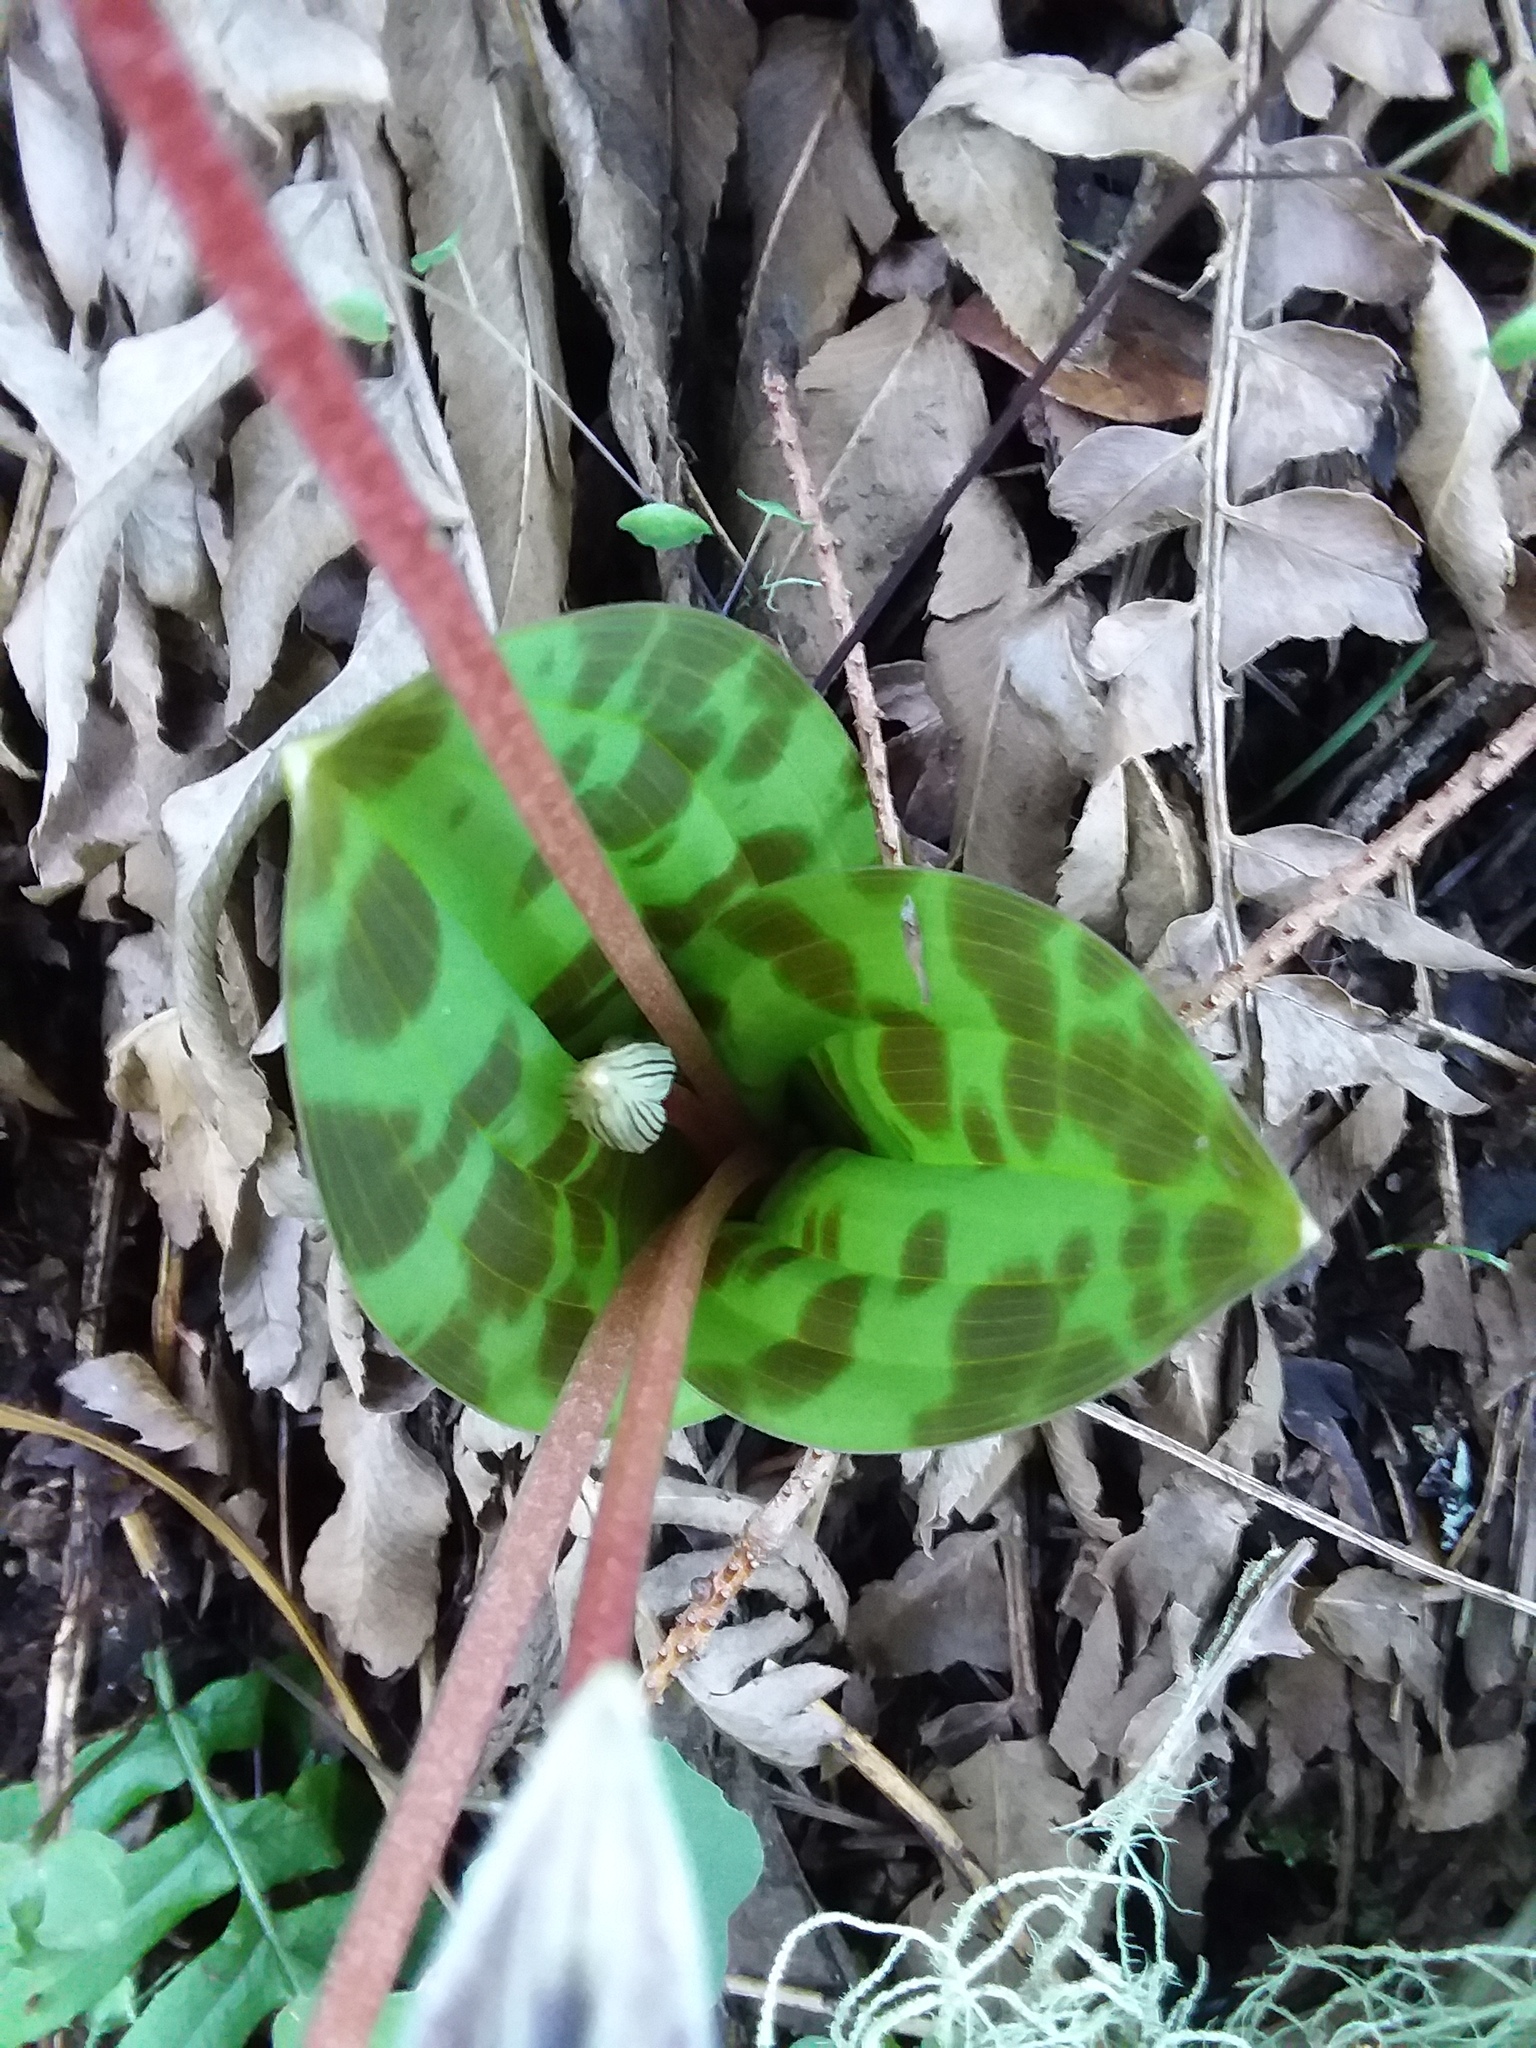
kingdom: Plantae
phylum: Tracheophyta
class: Liliopsida
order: Liliales
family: Liliaceae
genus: Scoliopus
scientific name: Scoliopus bigelovii
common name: Foetid adder's-tongue
